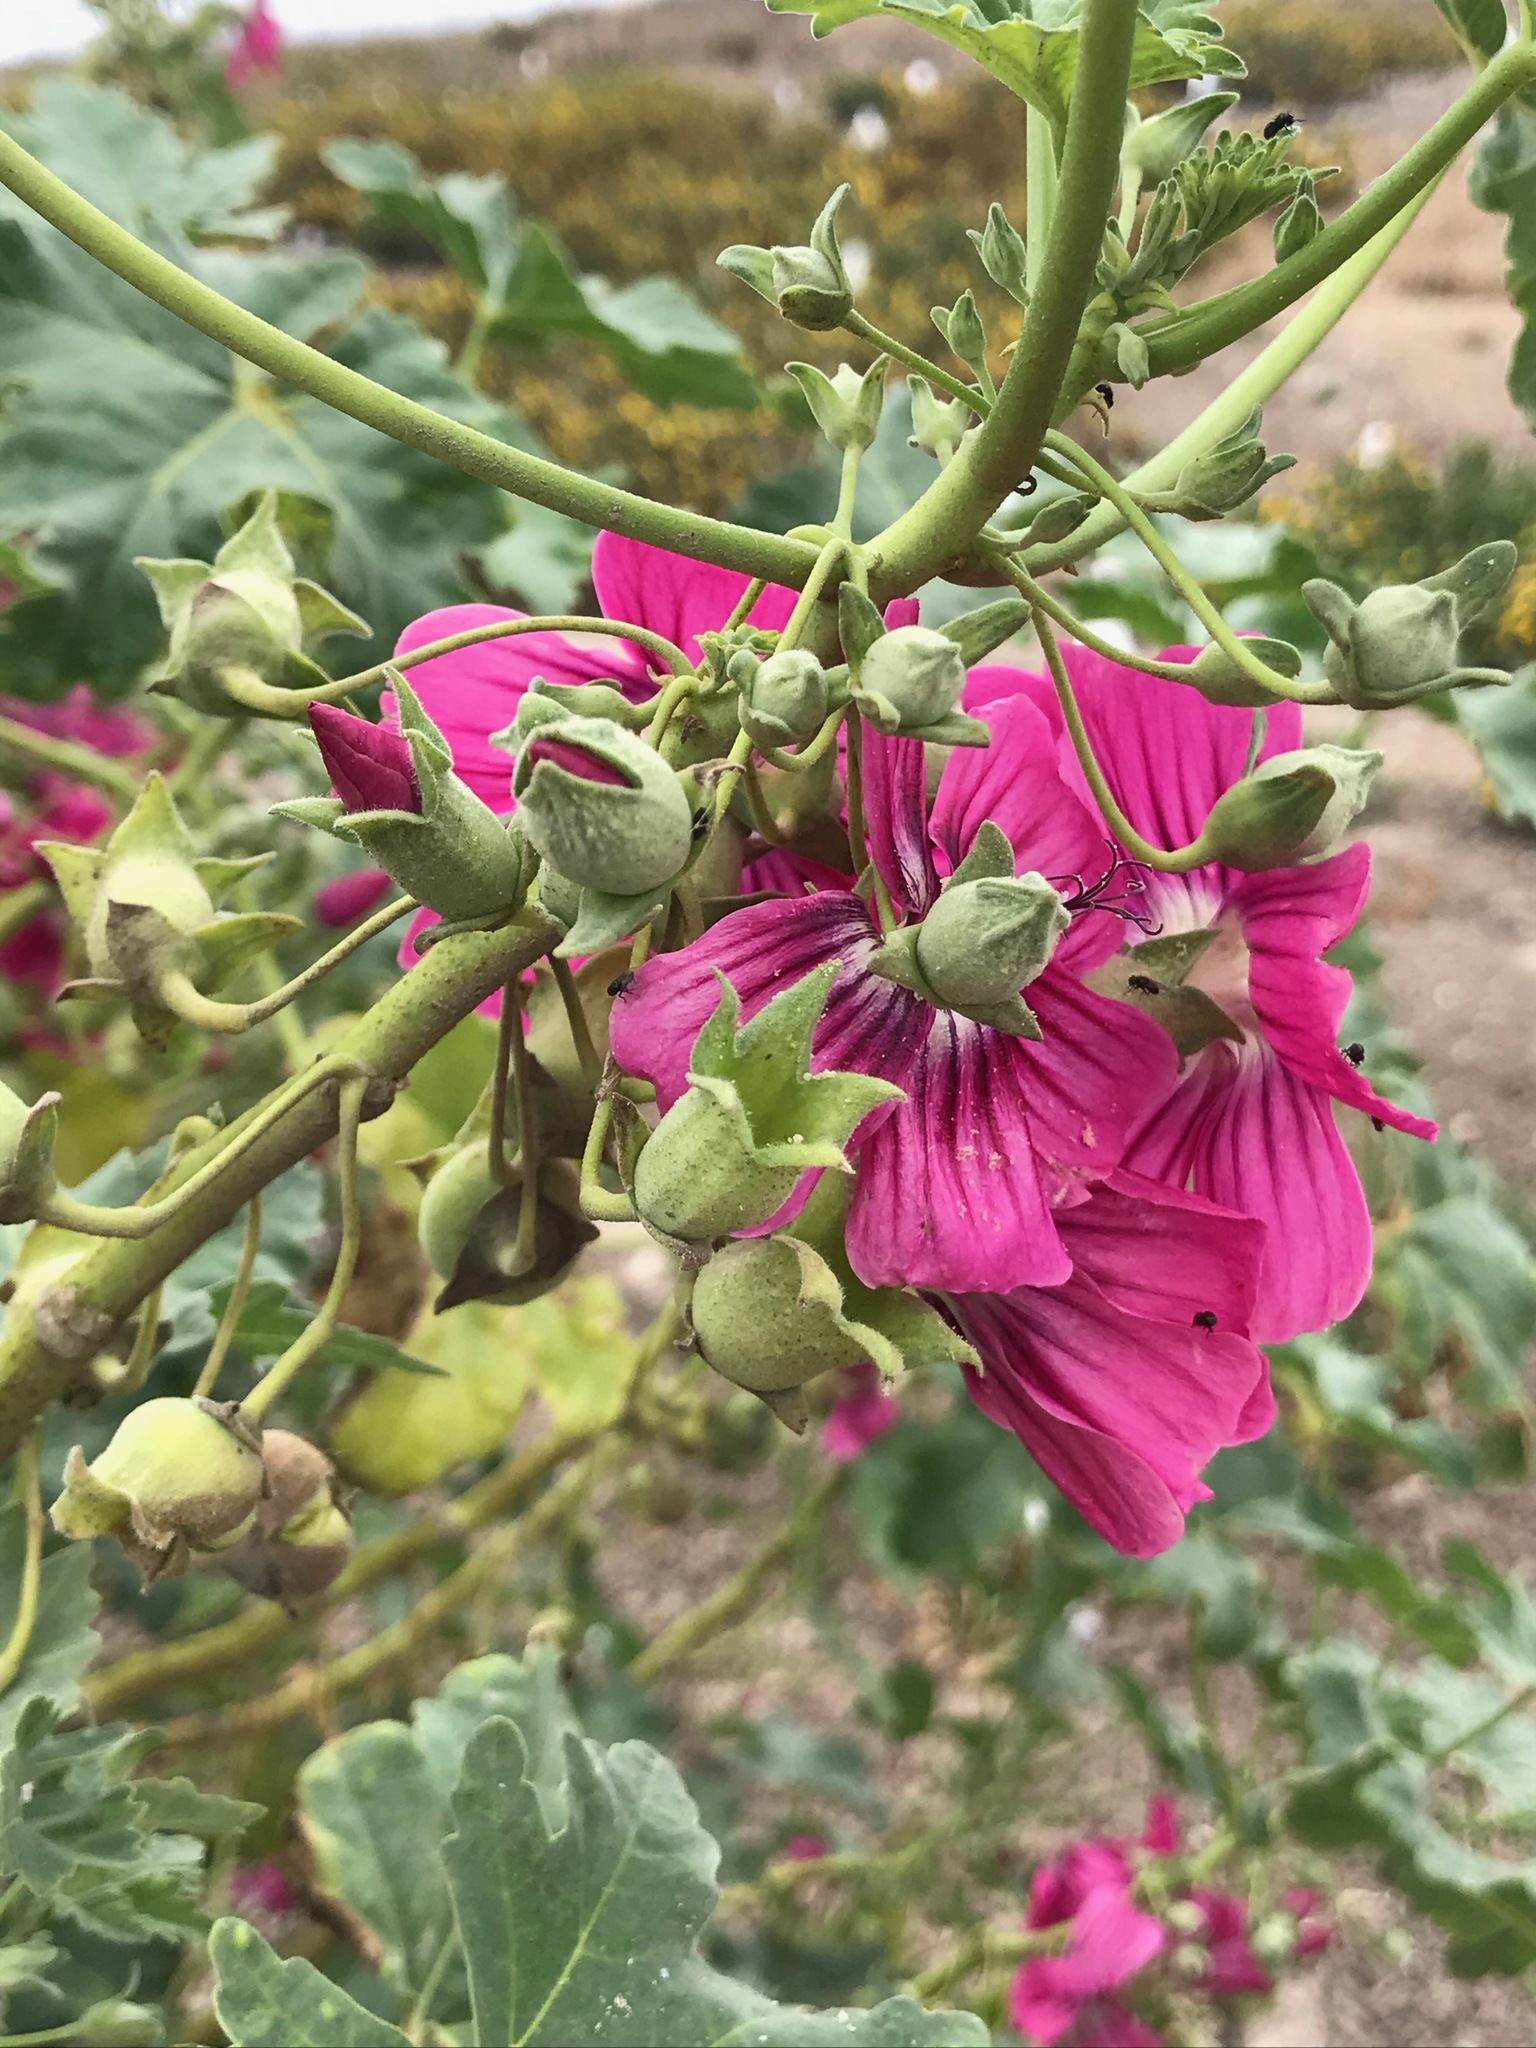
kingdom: Plantae
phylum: Tracheophyta
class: Magnoliopsida
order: Malvales
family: Malvaceae
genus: Malva
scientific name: Malva assurgentiflora
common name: Island mallow
